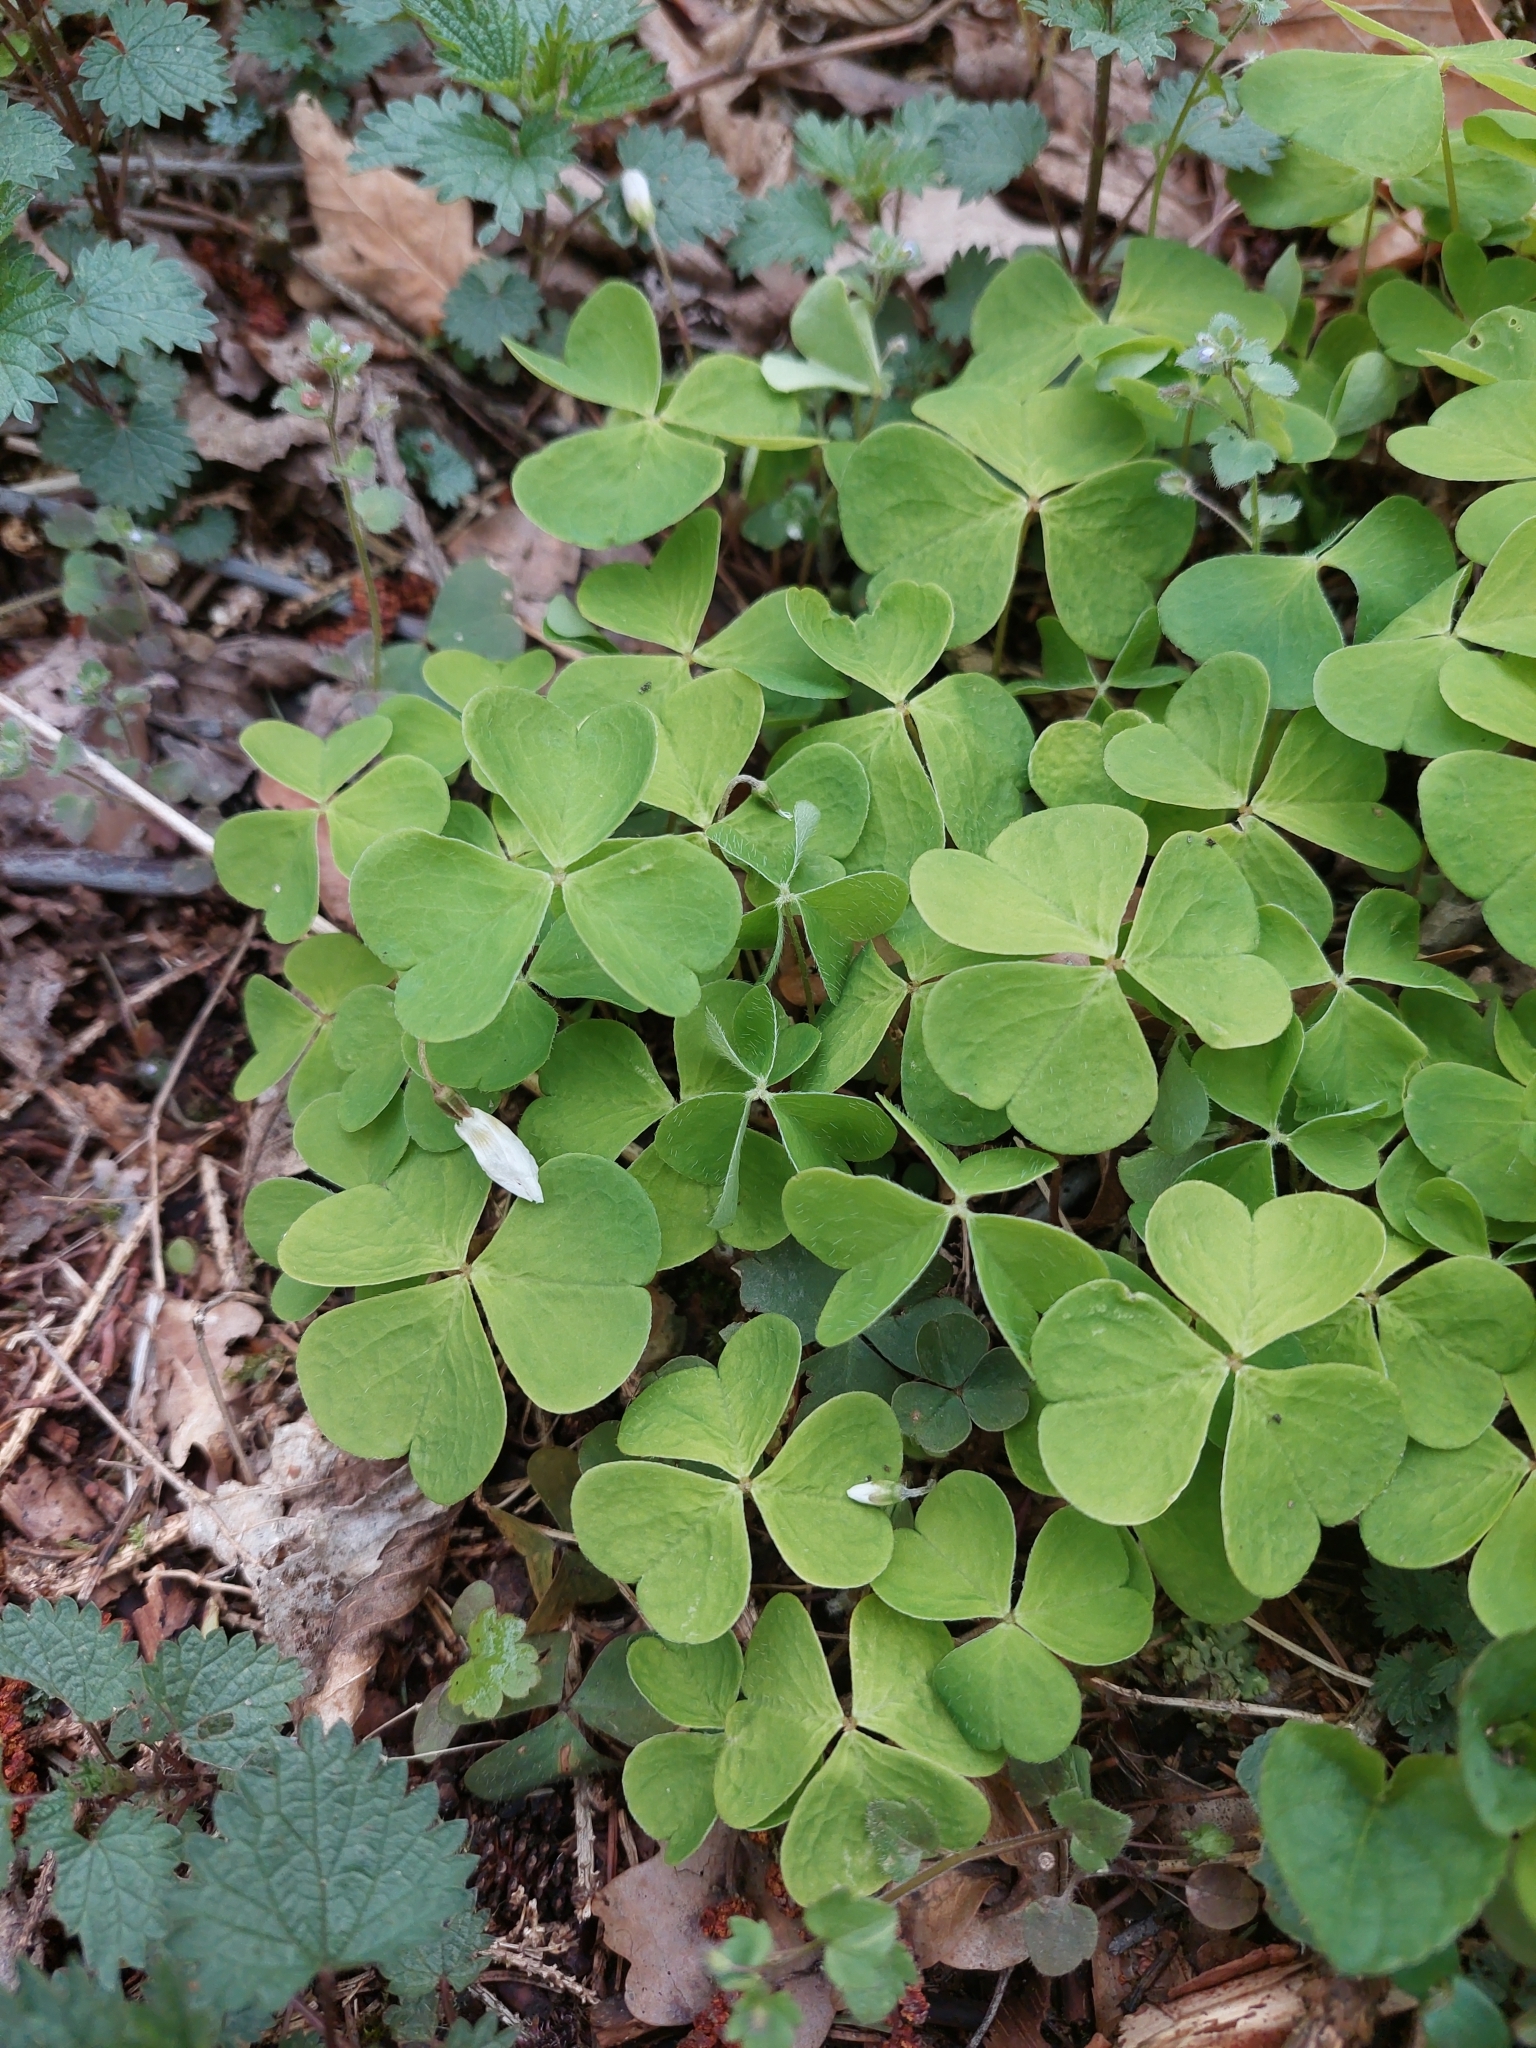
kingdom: Plantae
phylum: Tracheophyta
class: Magnoliopsida
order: Oxalidales
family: Oxalidaceae
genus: Oxalis
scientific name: Oxalis acetosella
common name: Wood-sorrel
